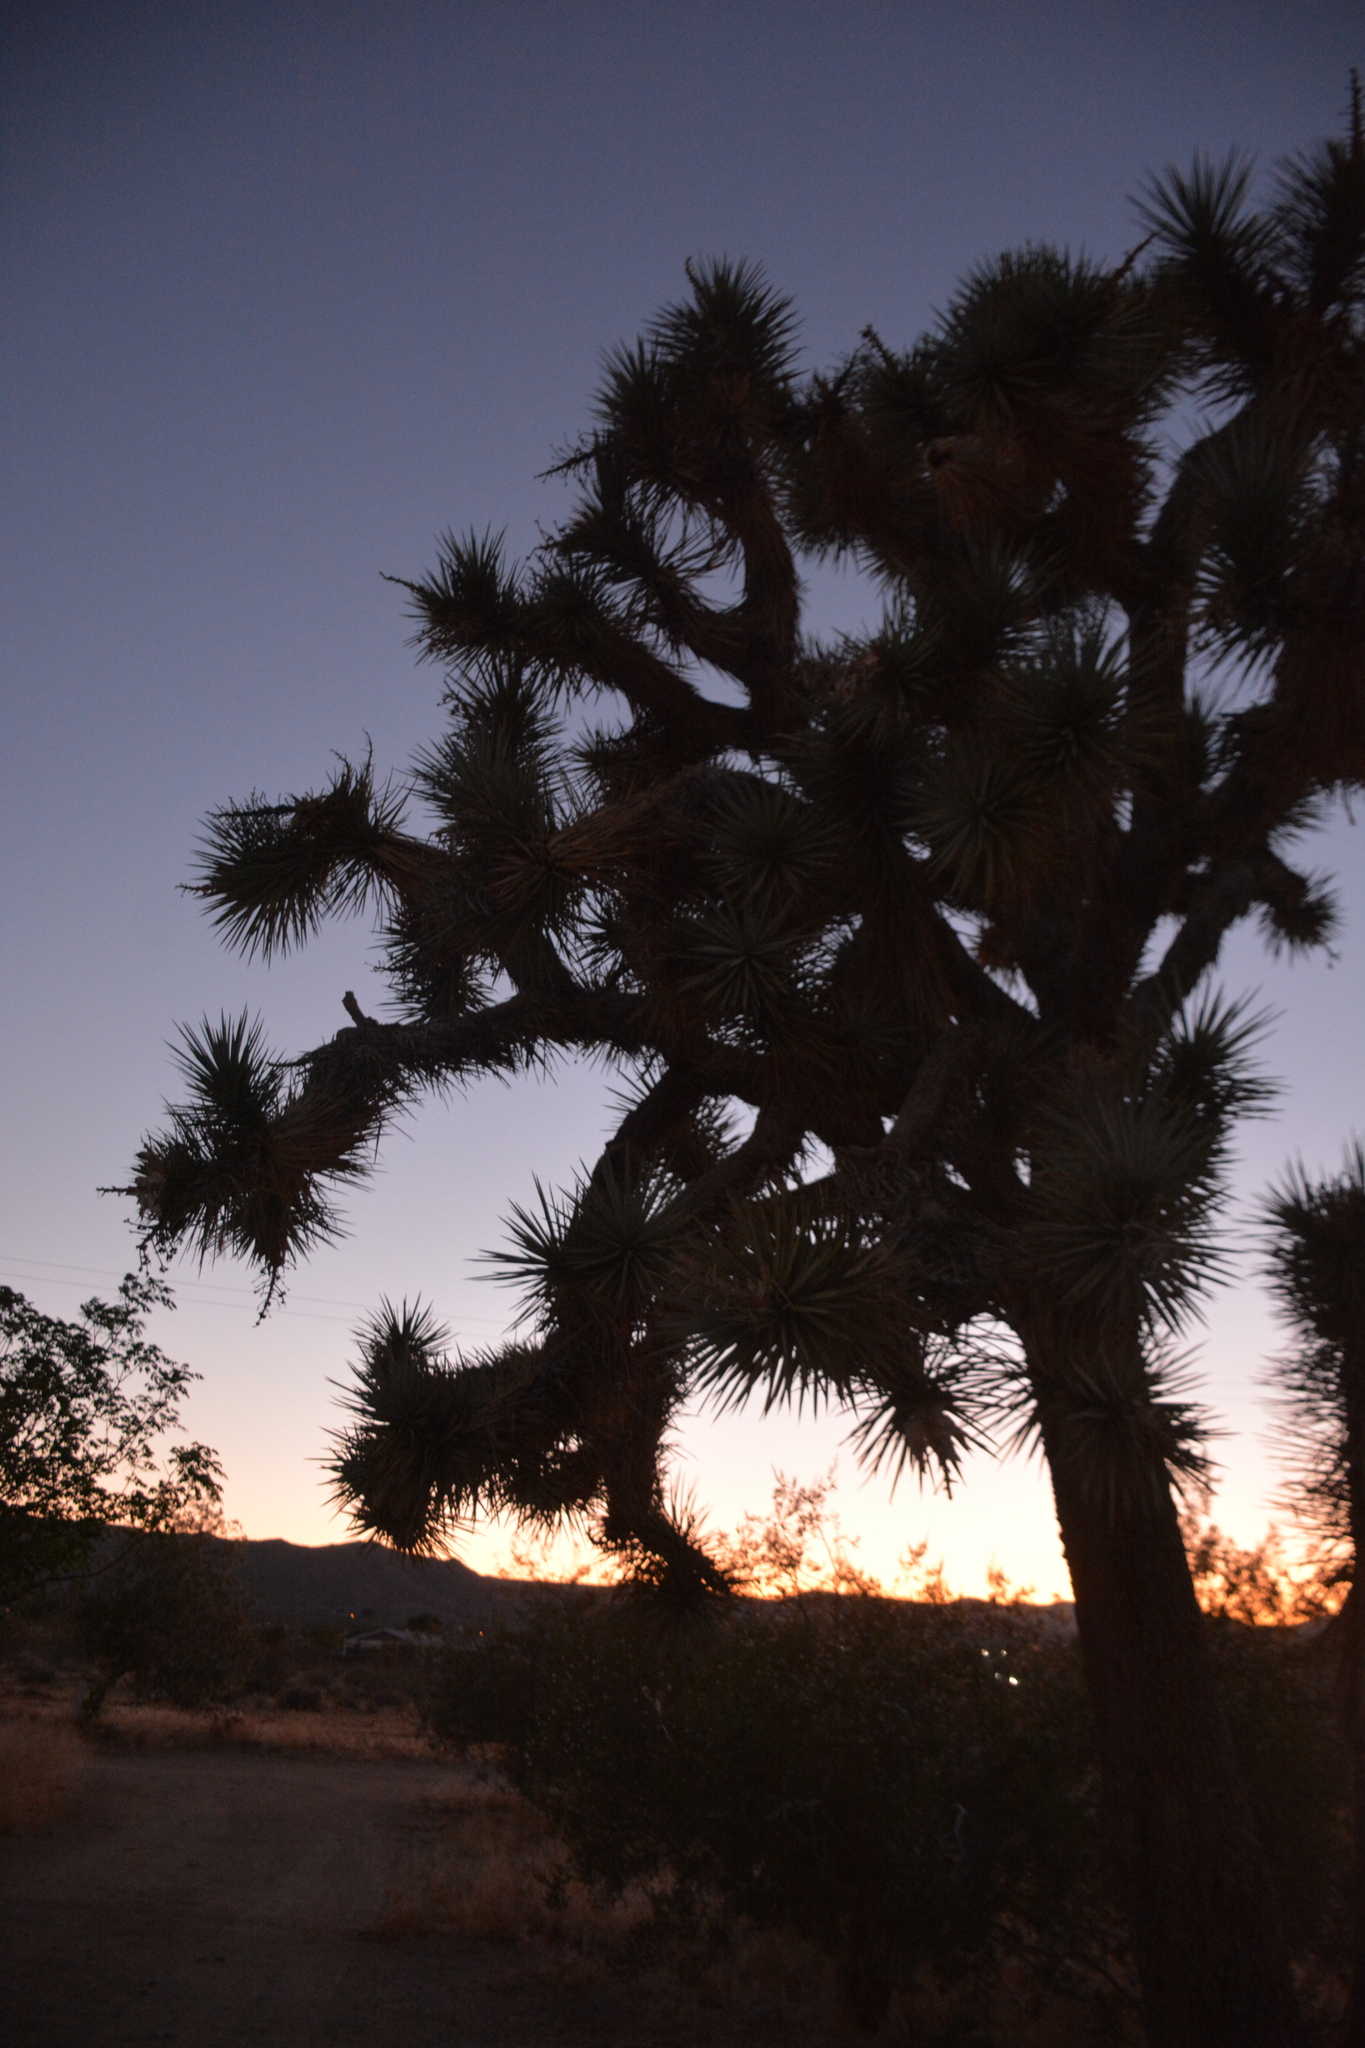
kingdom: Plantae
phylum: Tracheophyta
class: Liliopsida
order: Asparagales
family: Asparagaceae
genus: Yucca
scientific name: Yucca brevifolia
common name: Joshua tree
